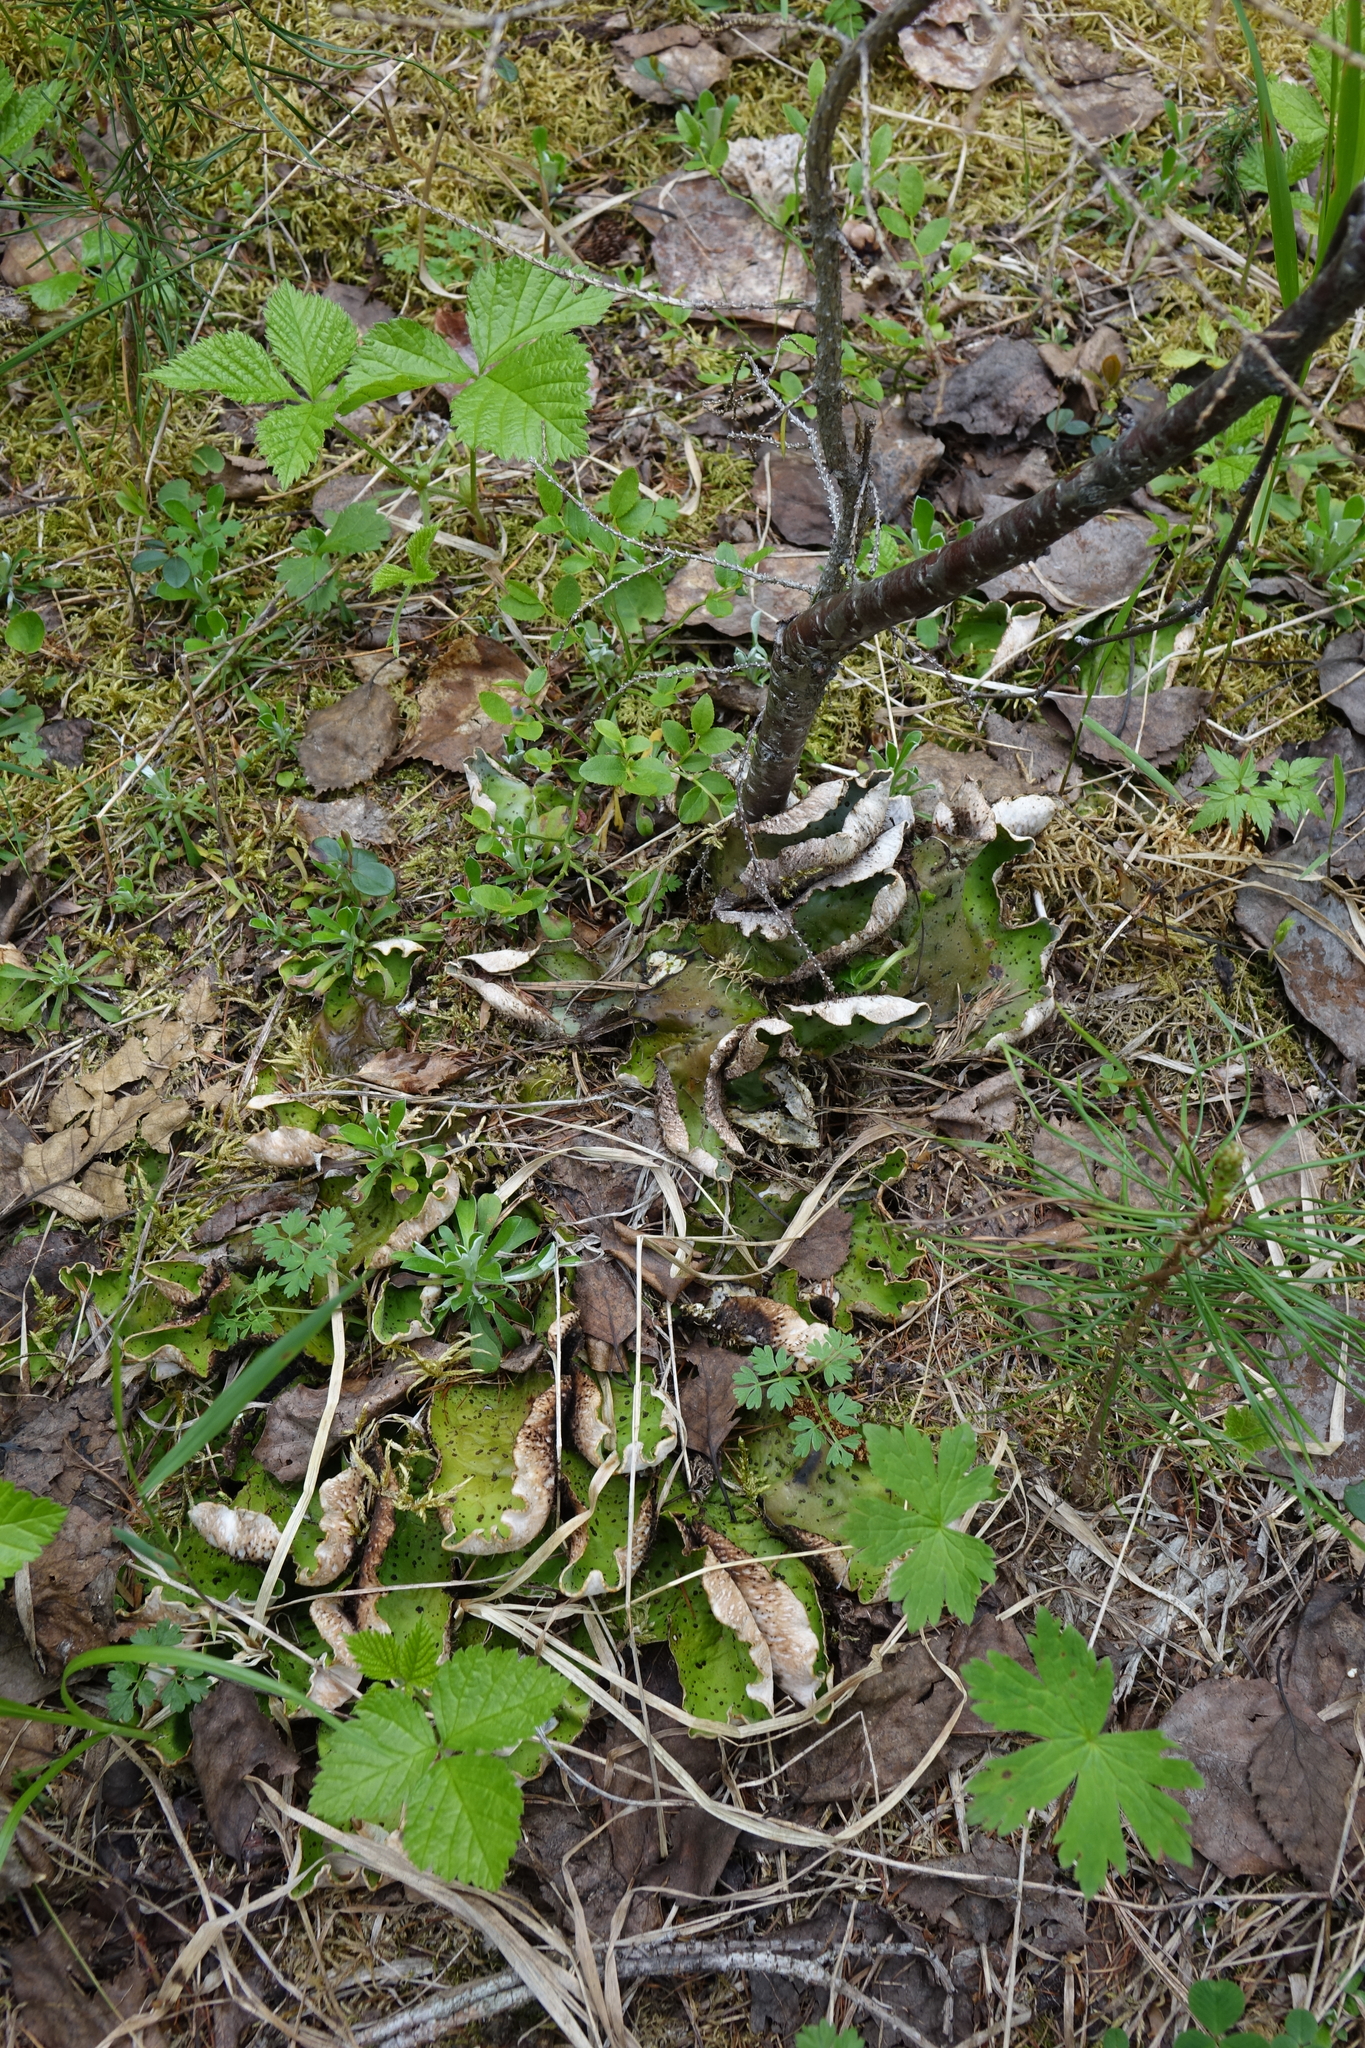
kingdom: Fungi
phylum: Ascomycota
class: Lecanoromycetes
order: Peltigerales
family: Peltigeraceae
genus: Peltigera
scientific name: Peltigera aphthosa
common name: Common freckle pelt lichen
